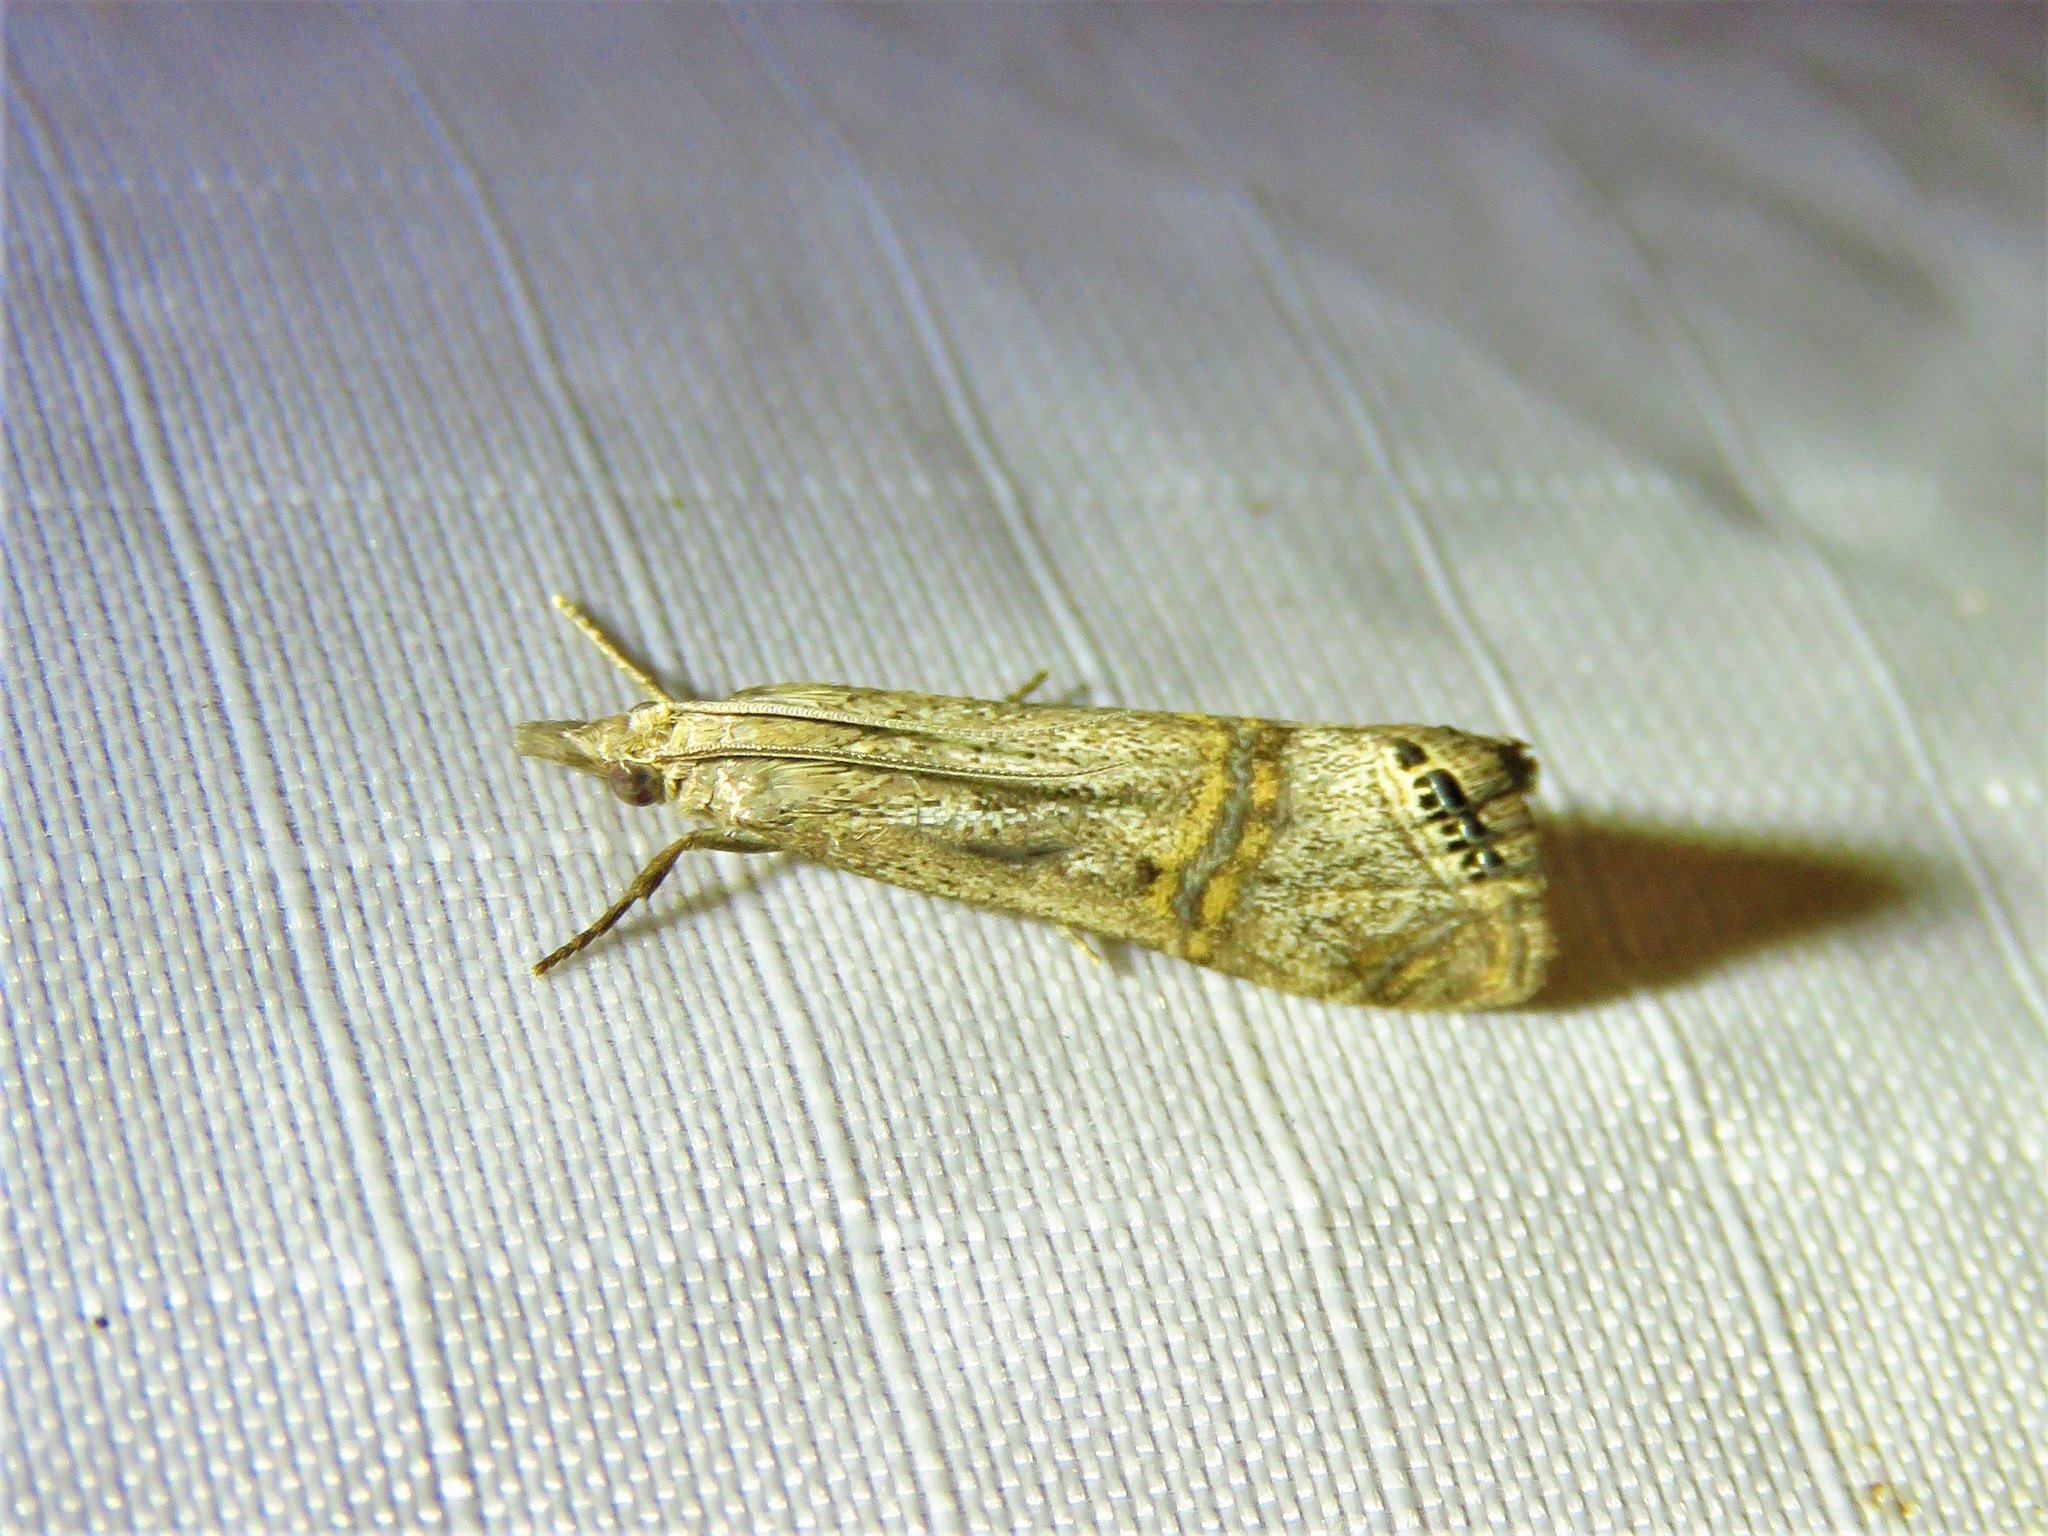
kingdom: Animalia
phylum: Arthropoda
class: Insecta
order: Lepidoptera
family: Crambidae
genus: Euchromius
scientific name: Euchromius ocellea
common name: Necklace veneer moth
